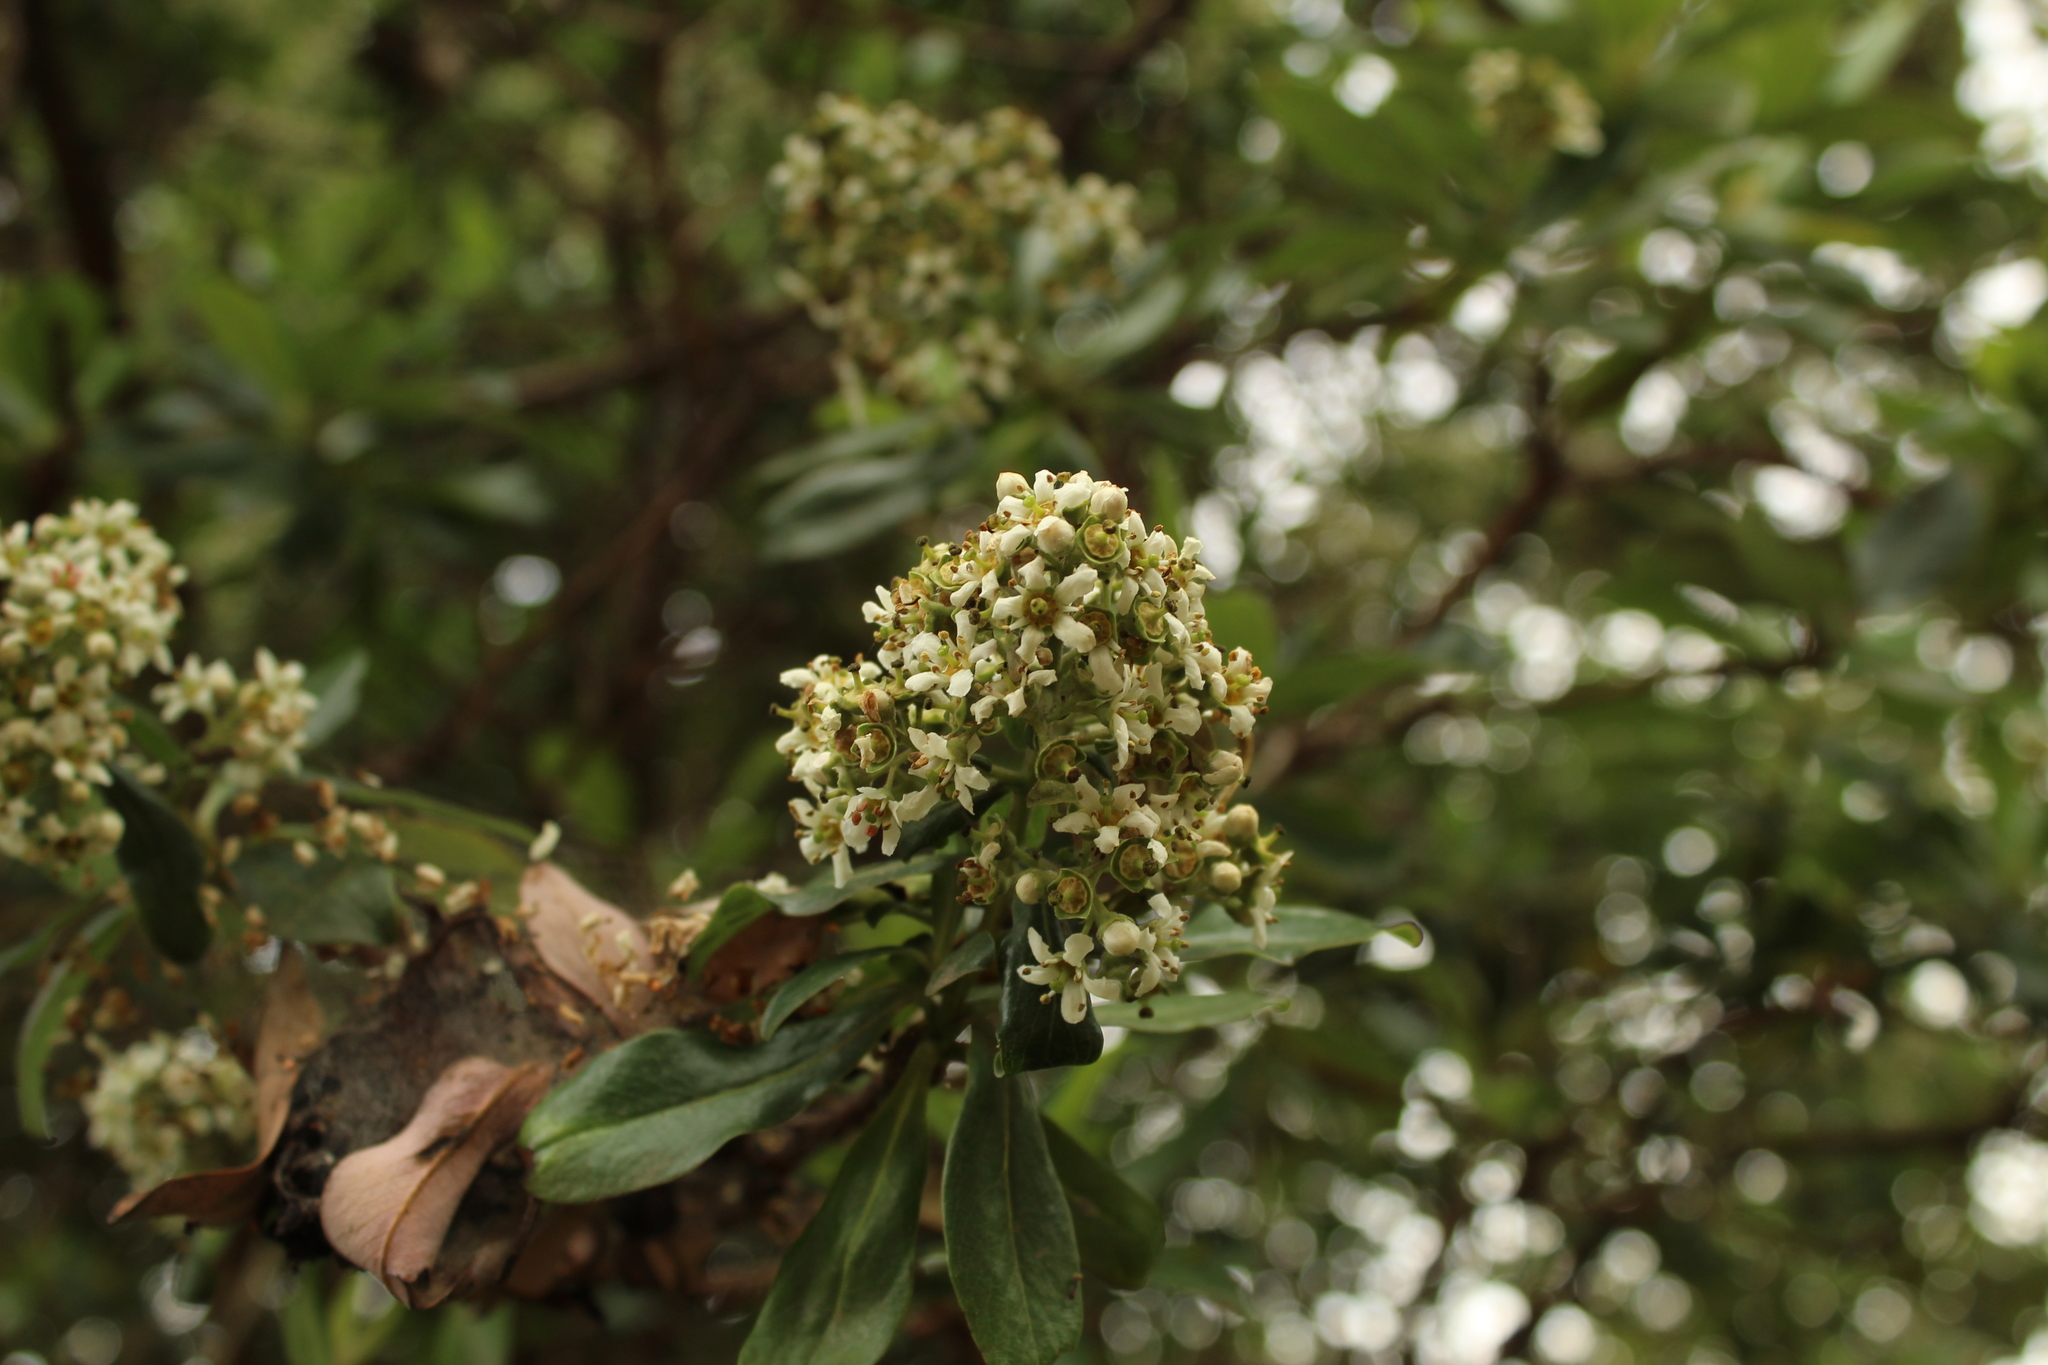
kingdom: Plantae
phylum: Tracheophyta
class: Magnoliopsida
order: Escalloniales
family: Escalloniaceae
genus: Escallonia
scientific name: Escallonia paniculata
